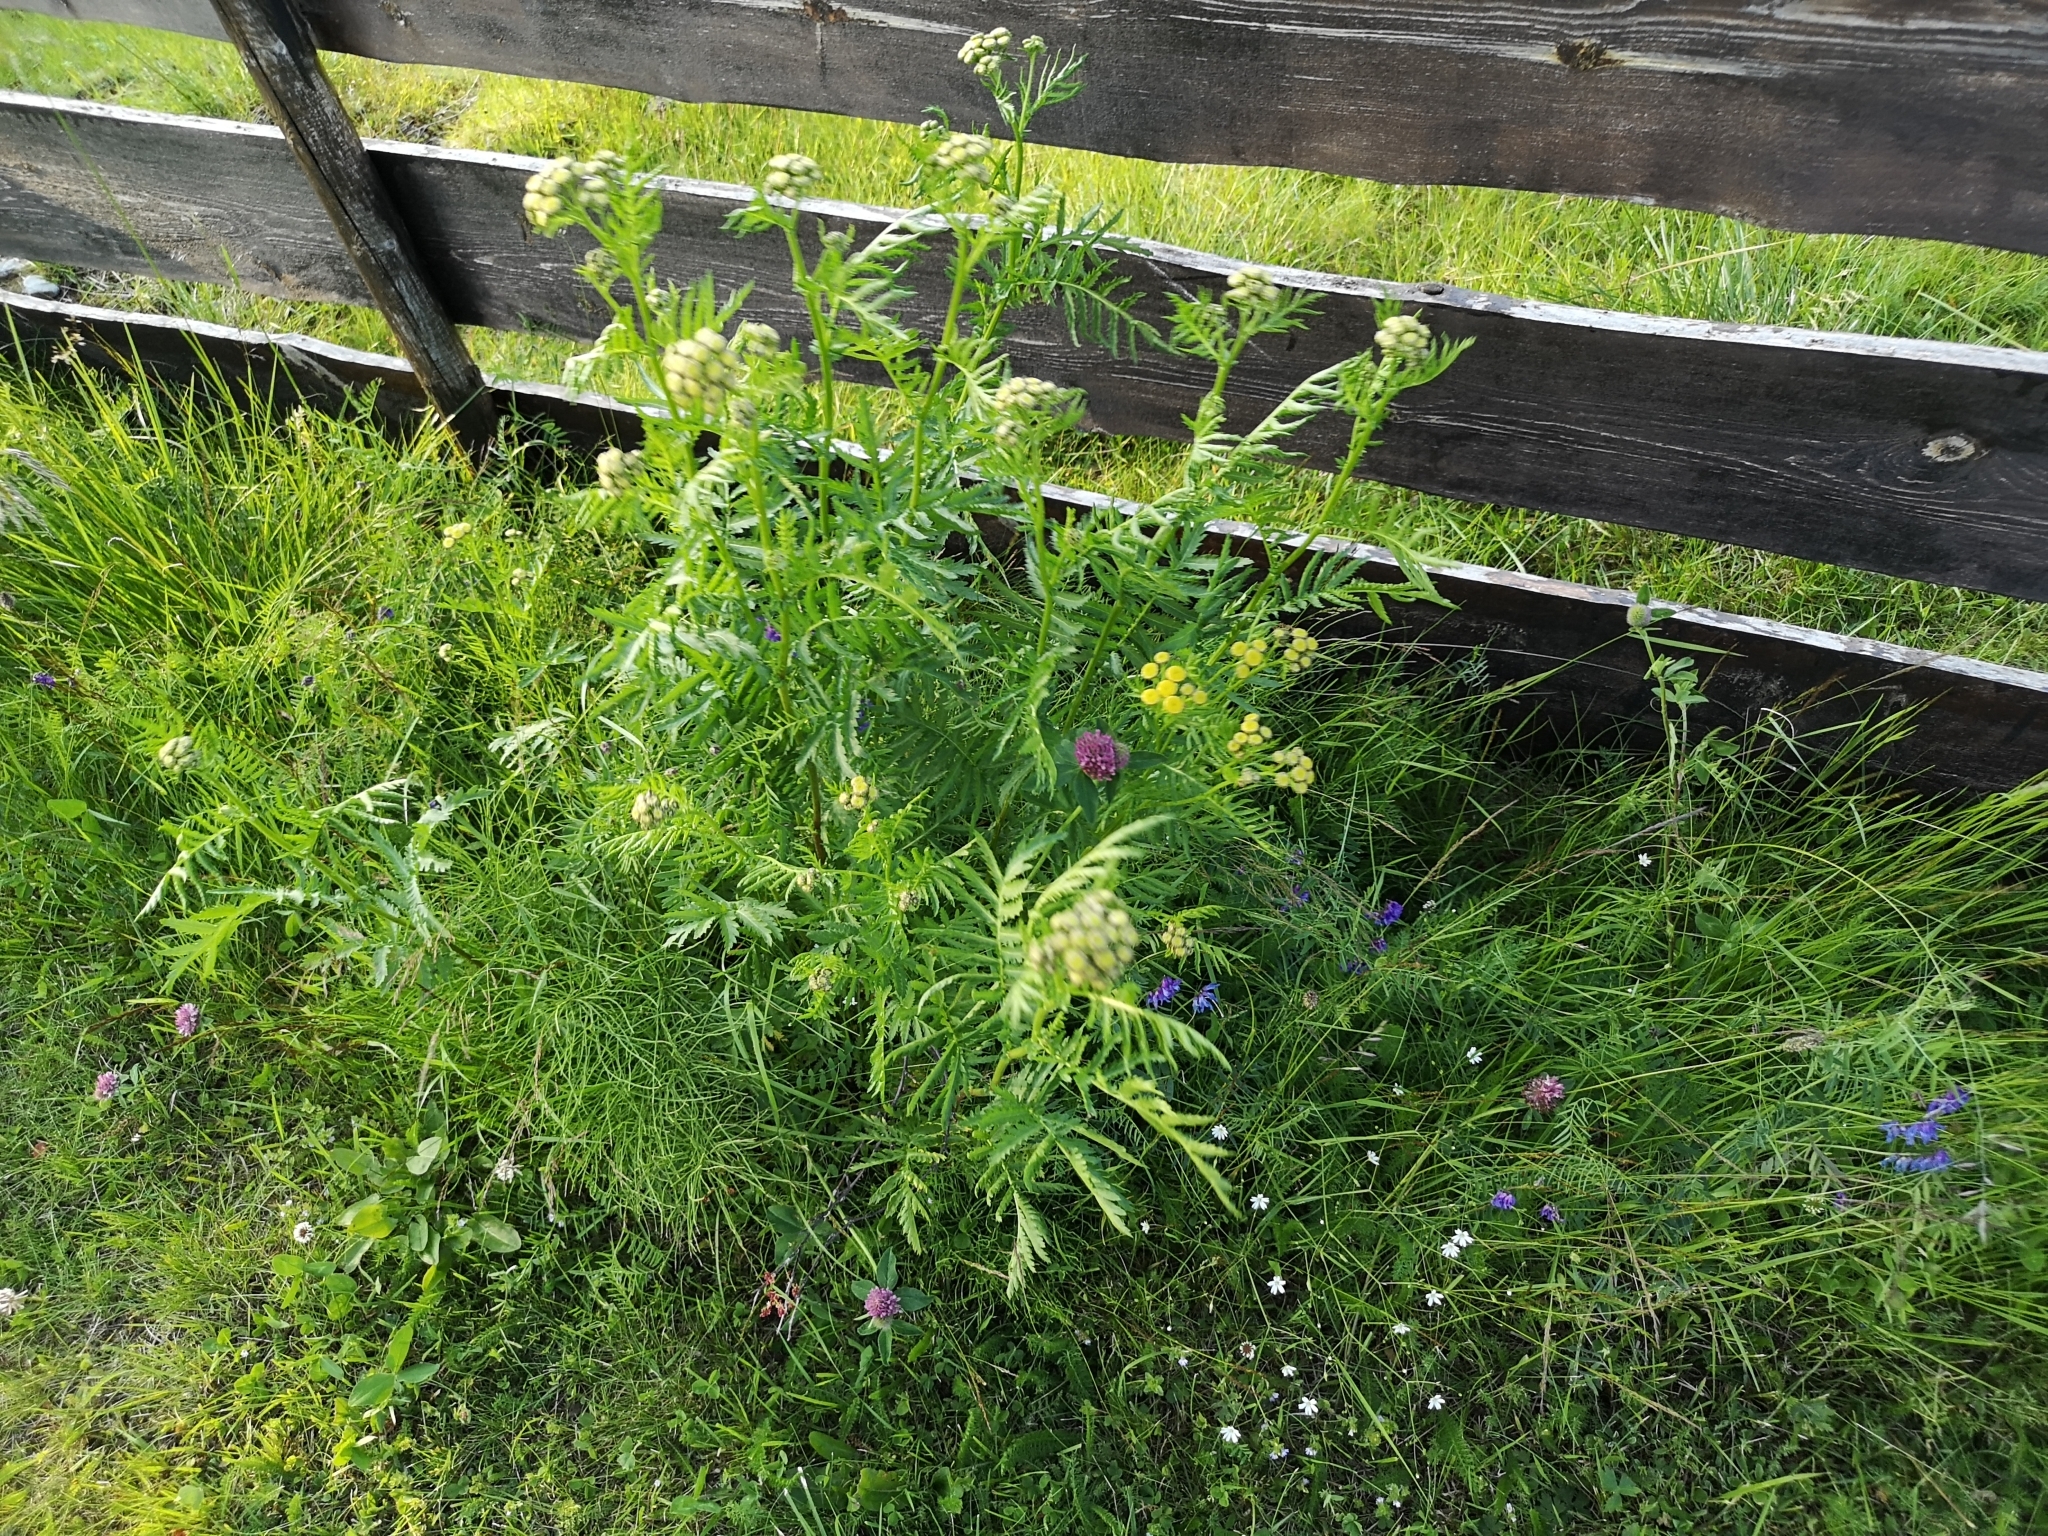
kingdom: Plantae
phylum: Tracheophyta
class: Magnoliopsida
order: Asterales
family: Asteraceae
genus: Tanacetum
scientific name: Tanacetum vulgare
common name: Common tansy
